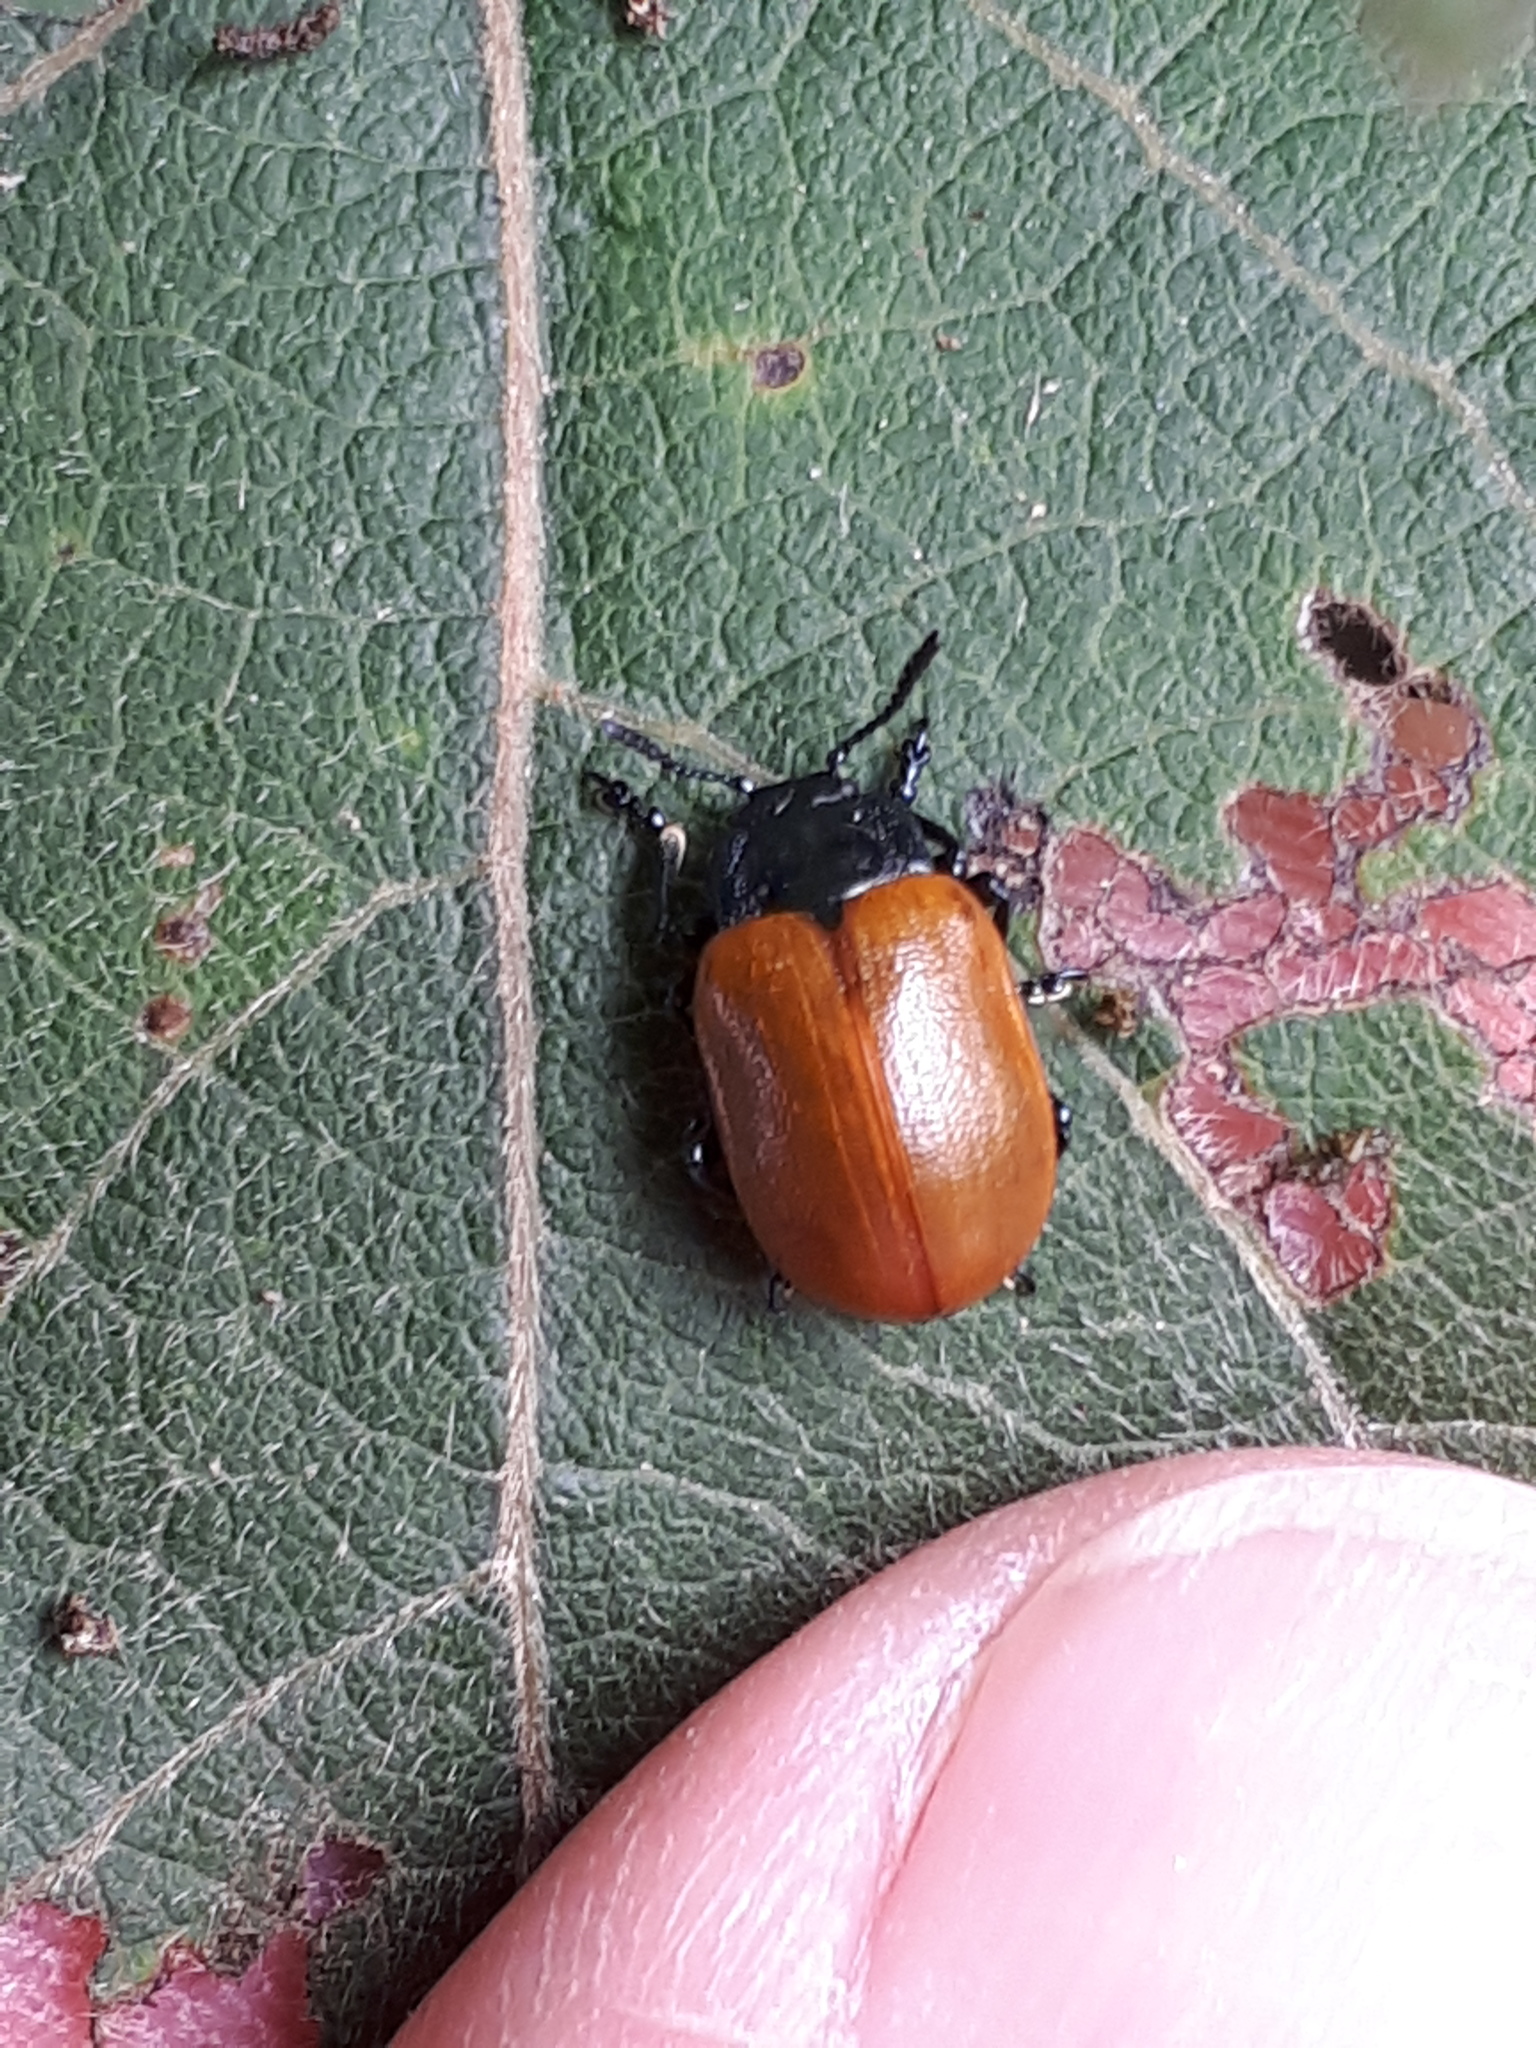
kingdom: Animalia
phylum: Arthropoda
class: Insecta
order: Coleoptera
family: Chrysomelidae
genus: Chrysomela
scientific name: Chrysomela populi
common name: Red poplar leaf beetle
